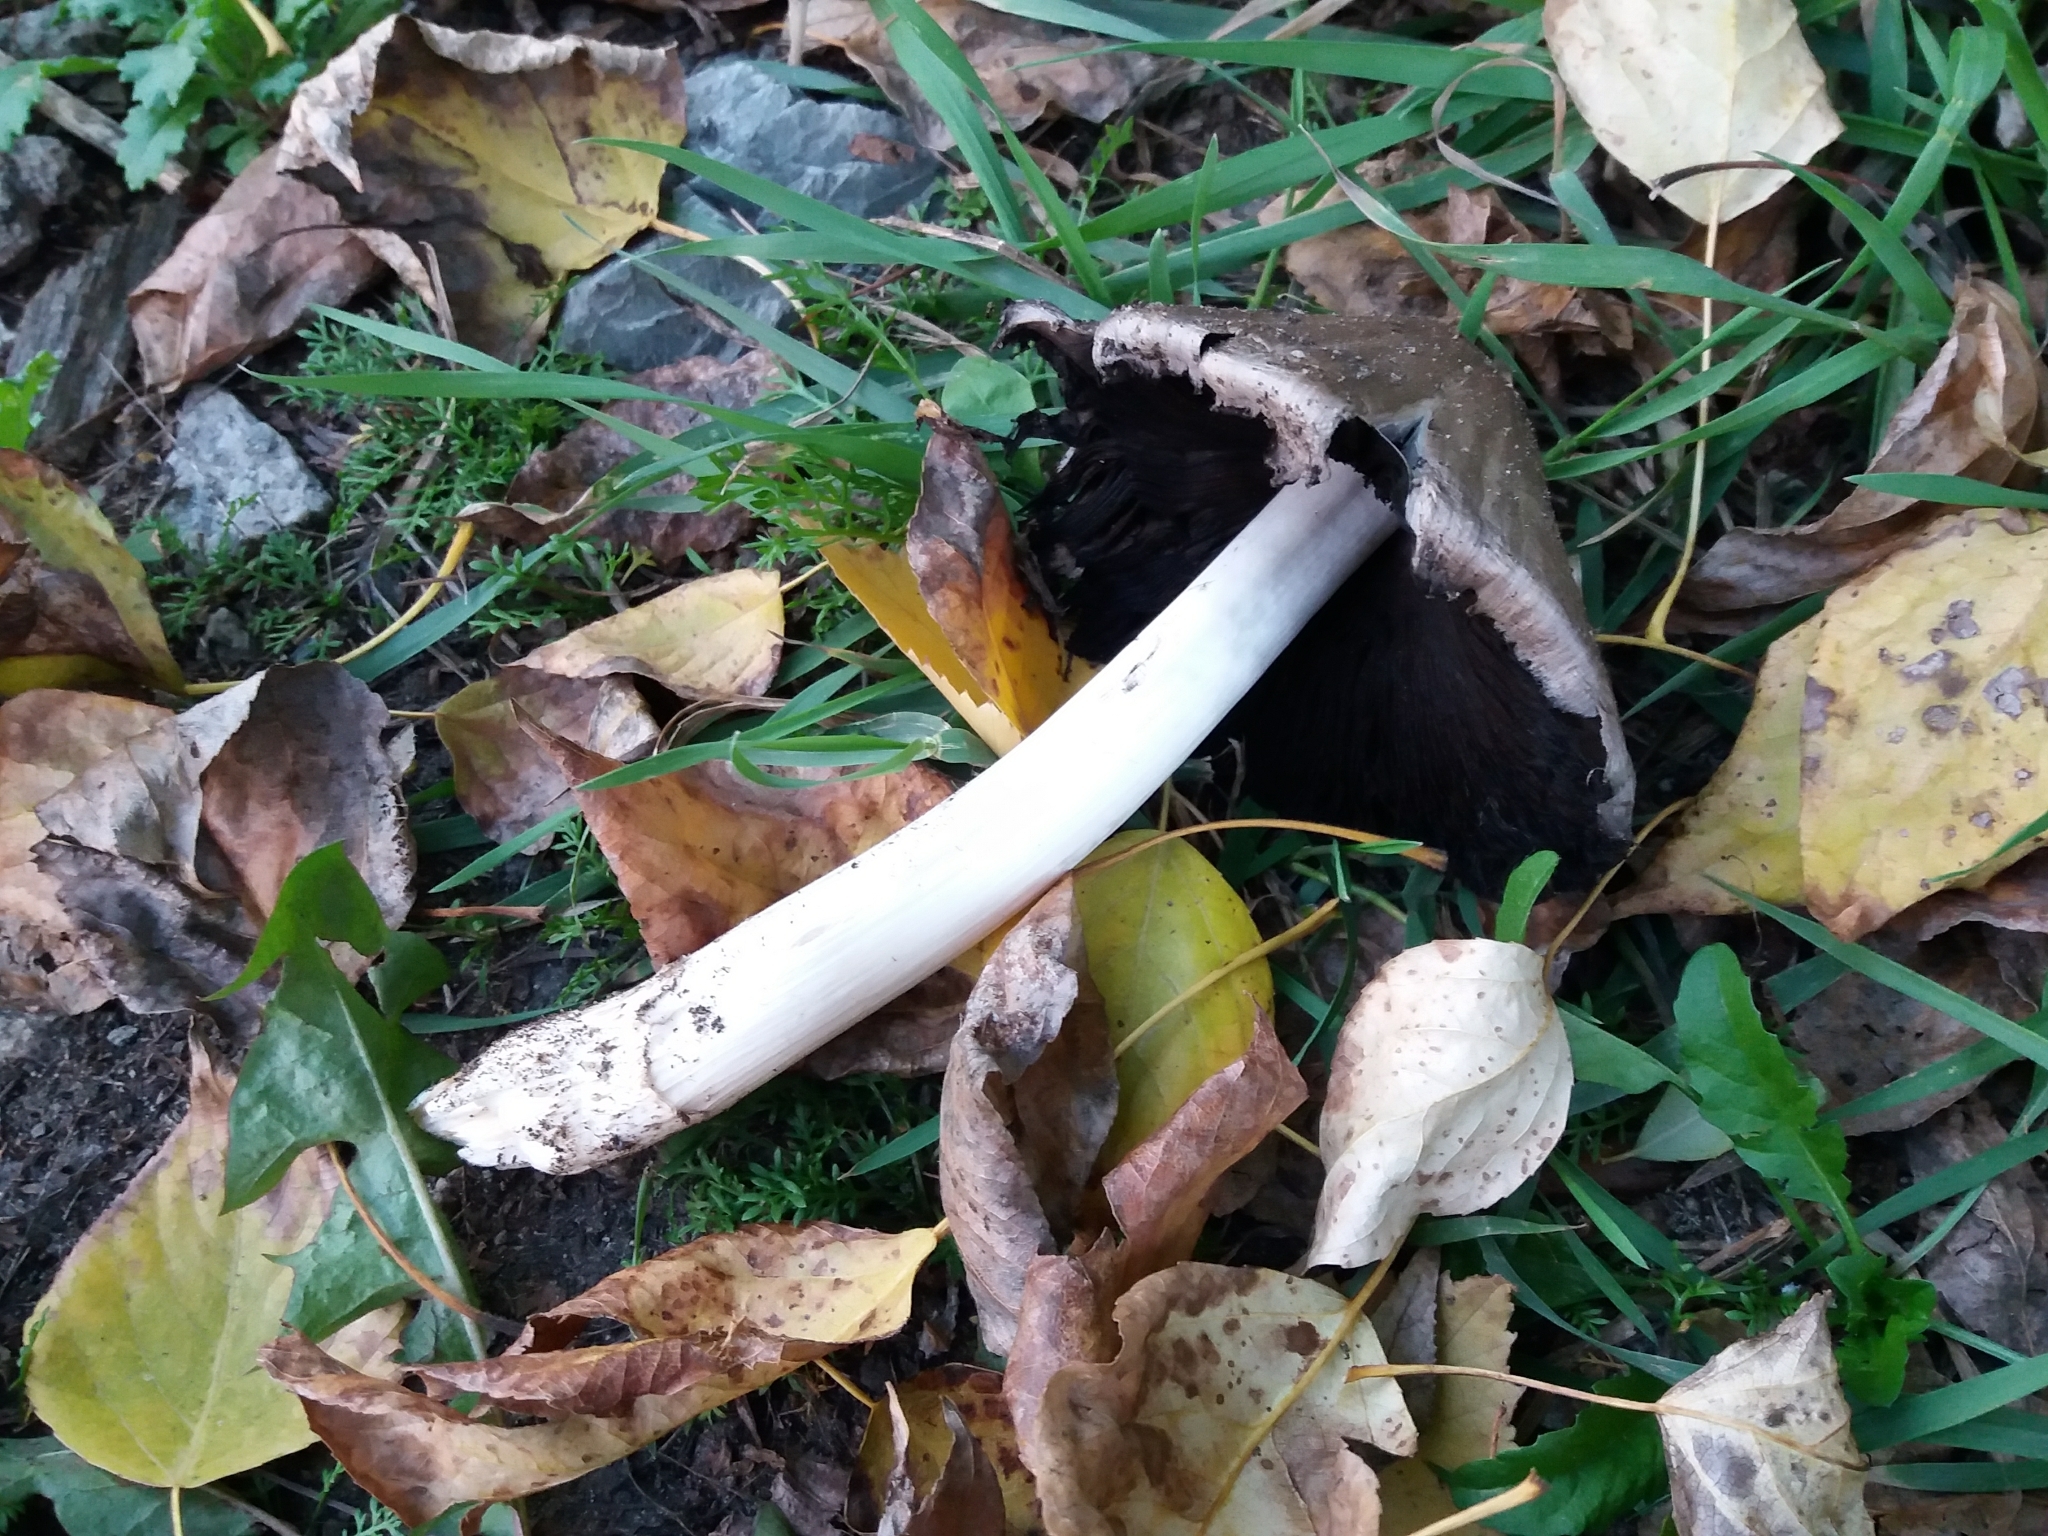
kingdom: Fungi
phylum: Basidiomycota
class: Agaricomycetes
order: Agaricales
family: Psathyrellaceae
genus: Coprinopsis
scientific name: Coprinopsis atramentaria
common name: Common ink-cap
